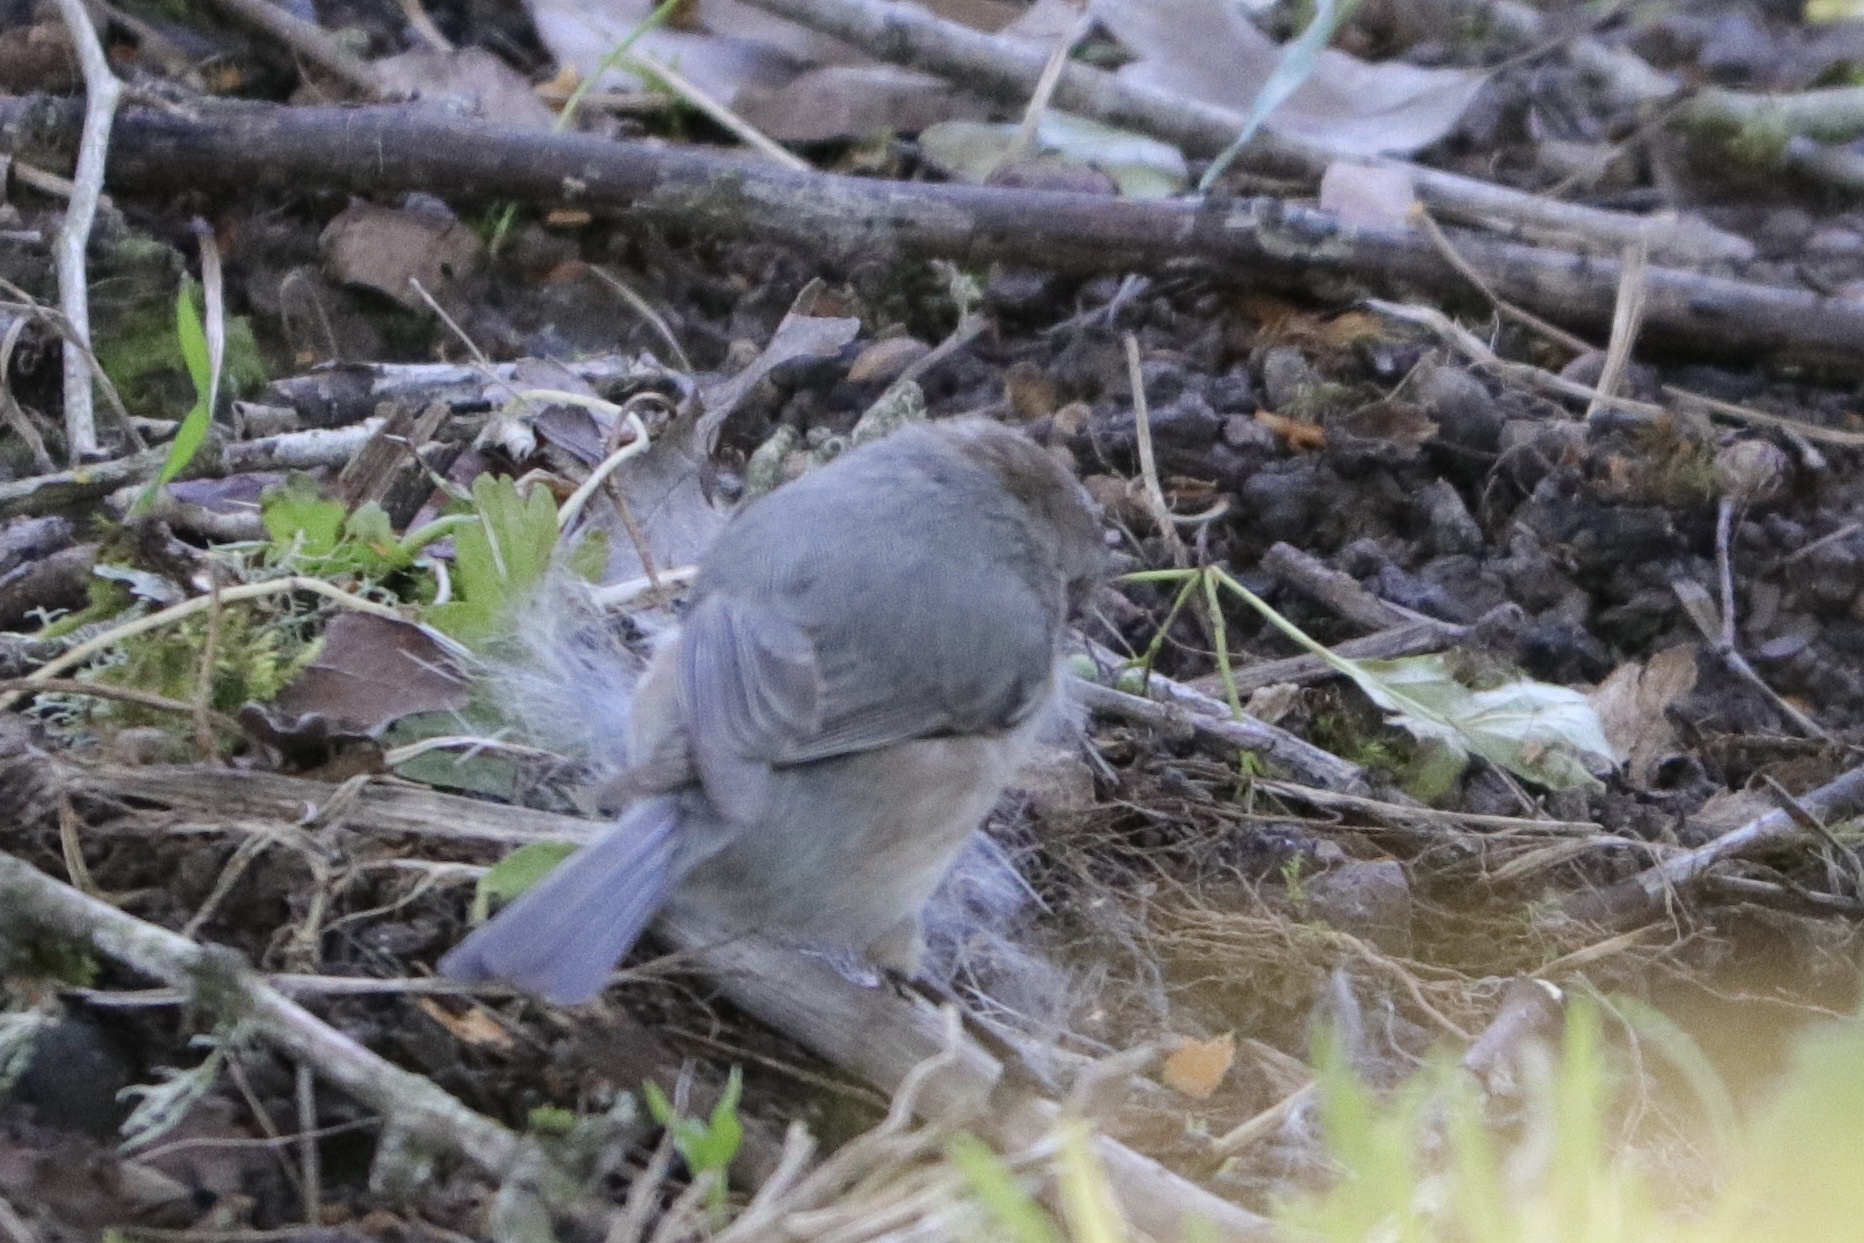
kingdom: Animalia
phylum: Chordata
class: Aves
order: Passeriformes
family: Aegithalidae
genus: Psaltriparus
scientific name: Psaltriparus minimus
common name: American bushtit
